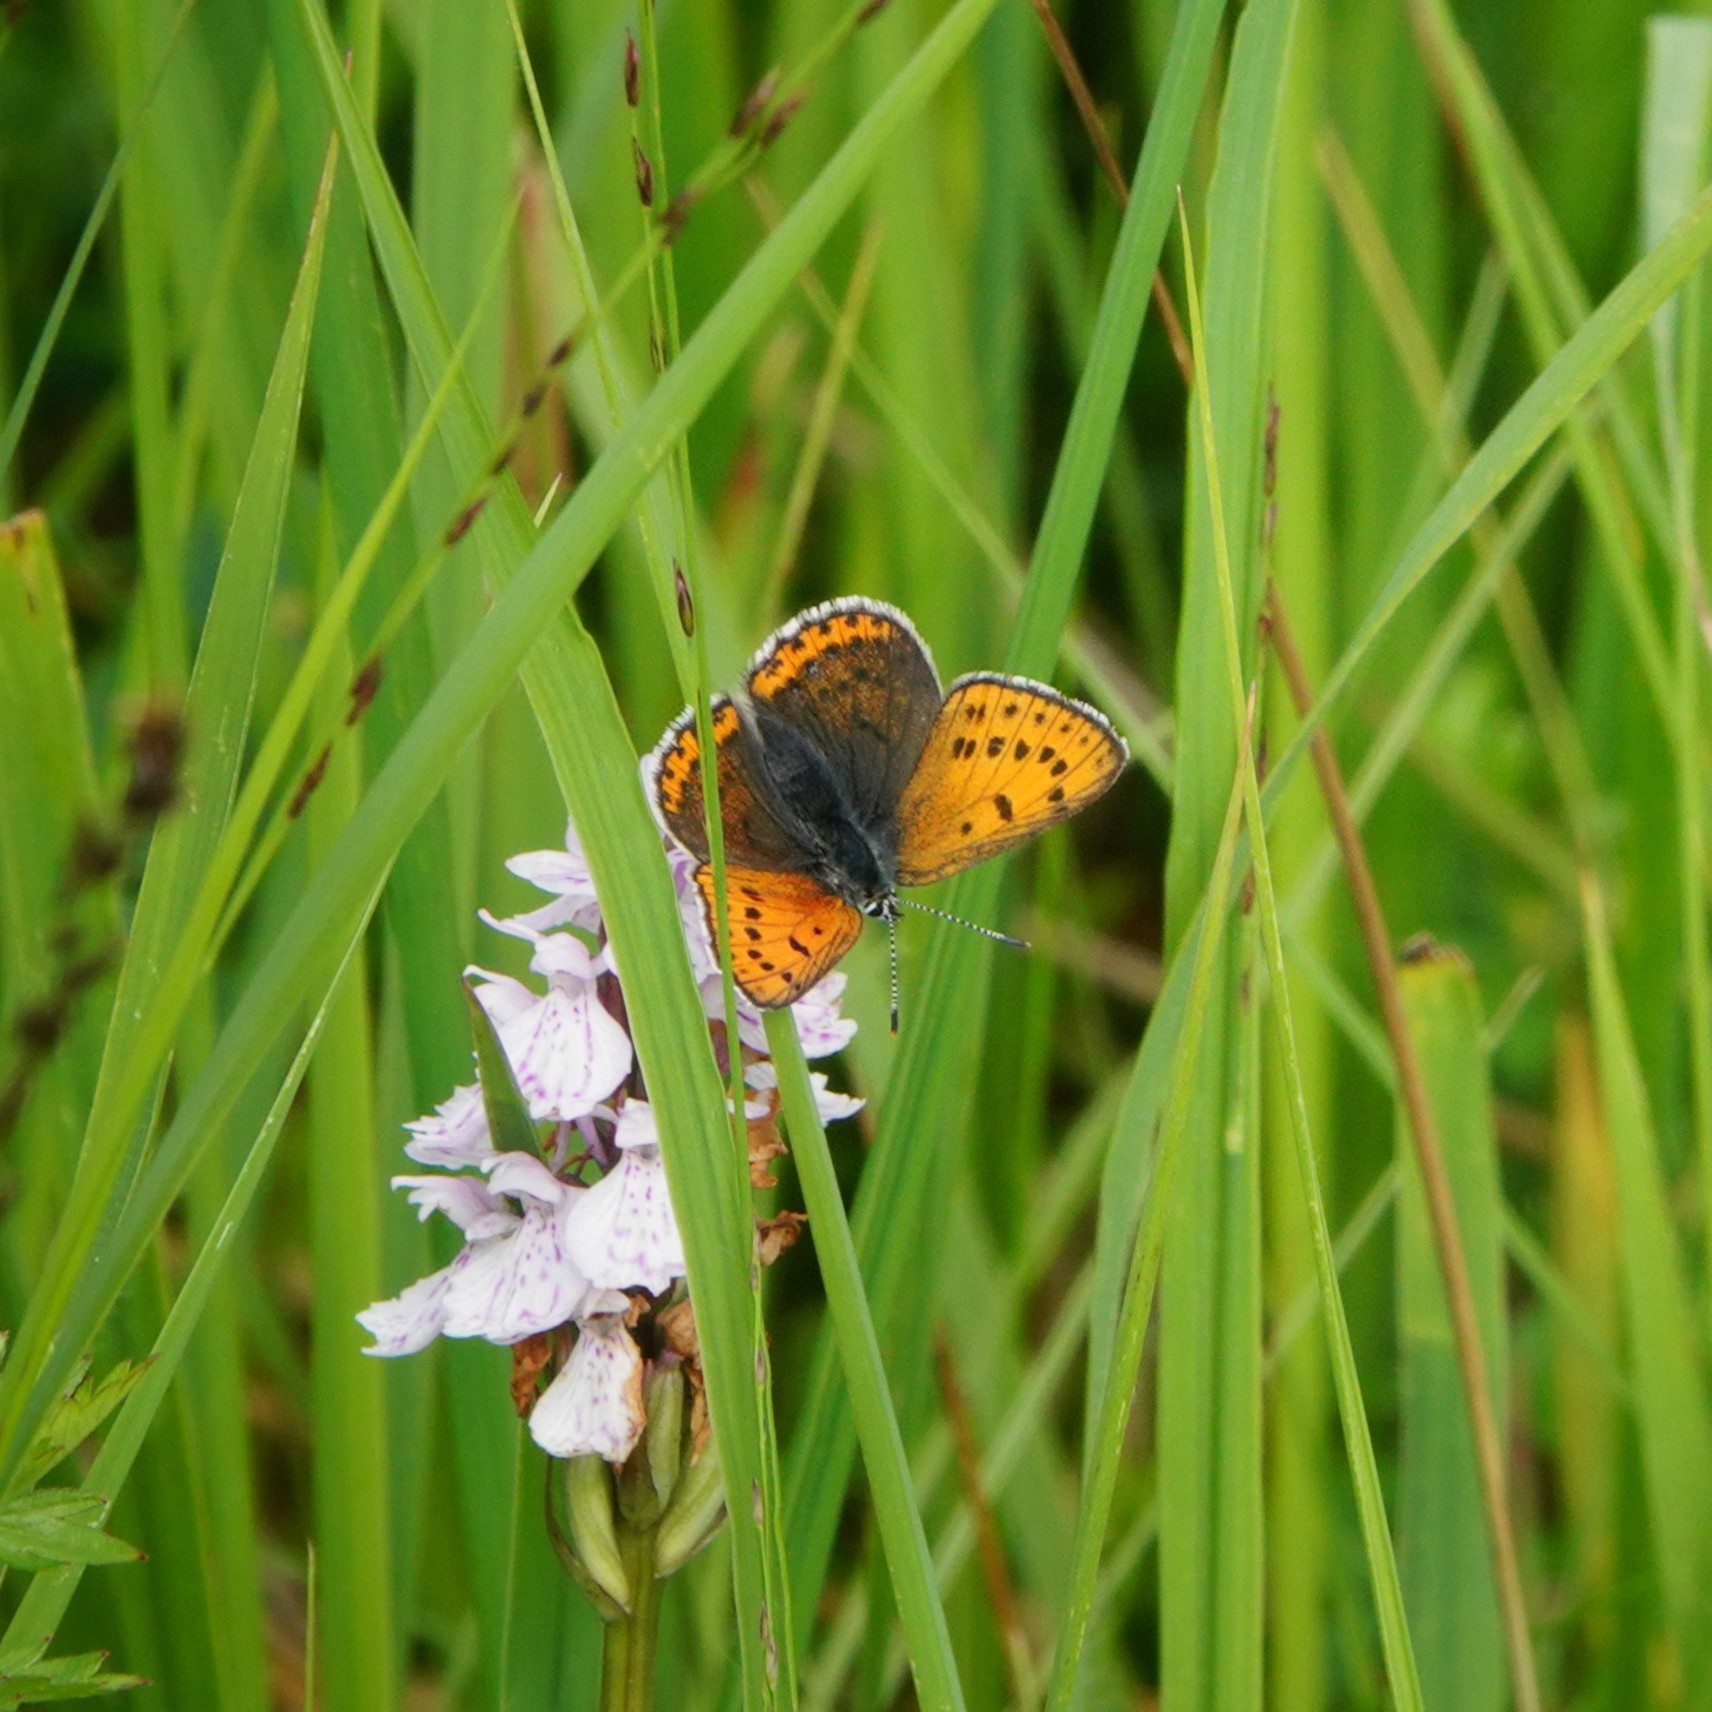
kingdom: Animalia
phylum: Arthropoda
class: Insecta
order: Lepidoptera
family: Lycaenidae
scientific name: Lycaenidae
